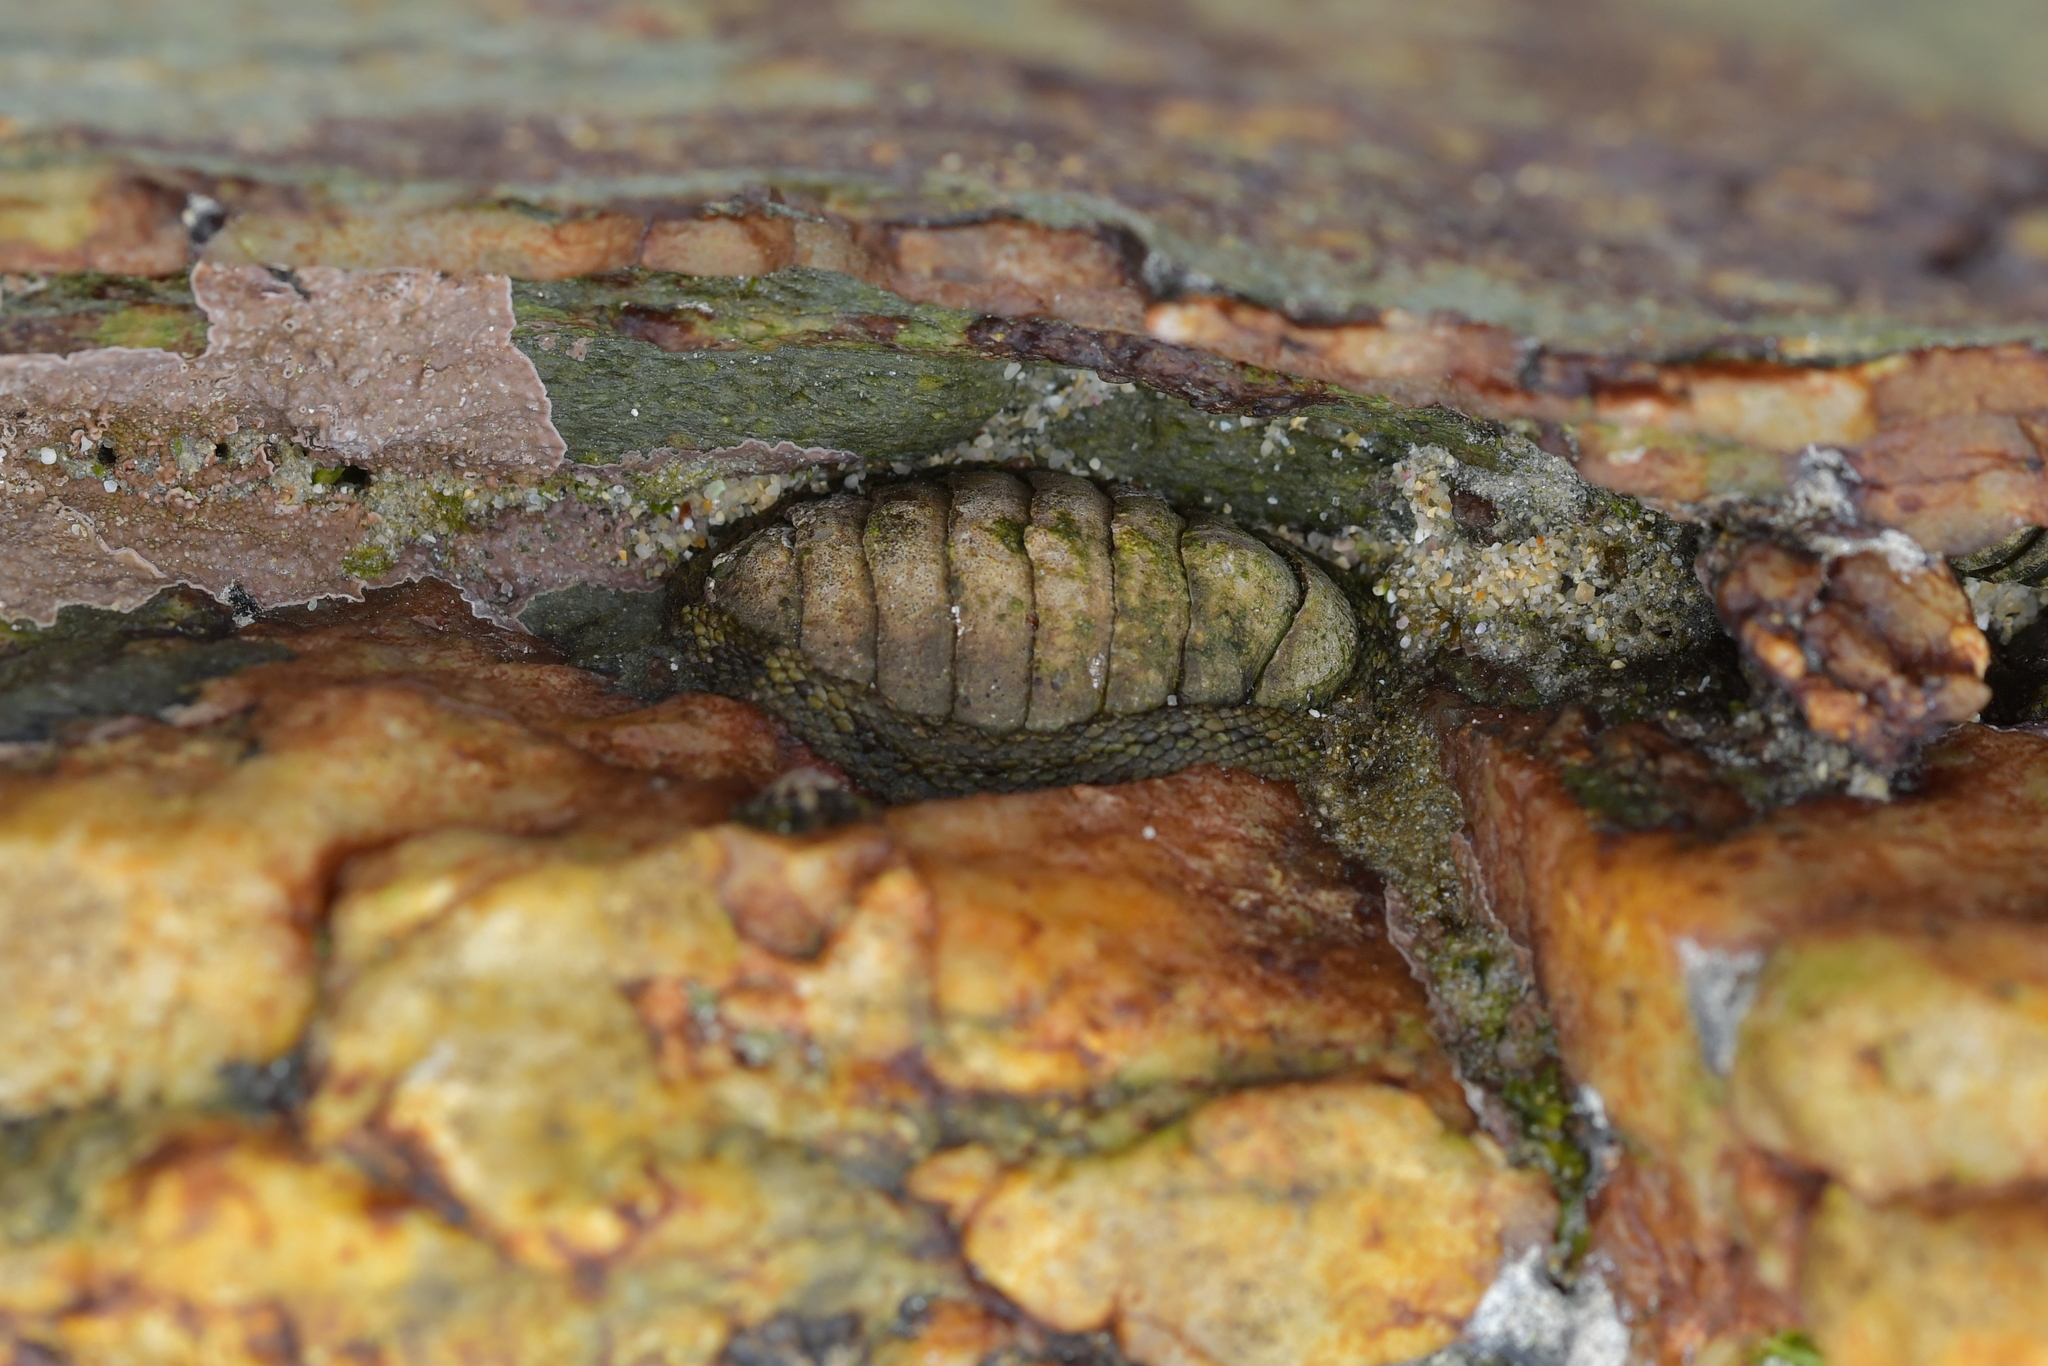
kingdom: Animalia
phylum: Mollusca
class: Polyplacophora
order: Chitonida
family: Chitonidae
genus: Sypharochiton
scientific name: Sypharochiton pelliserpentis
